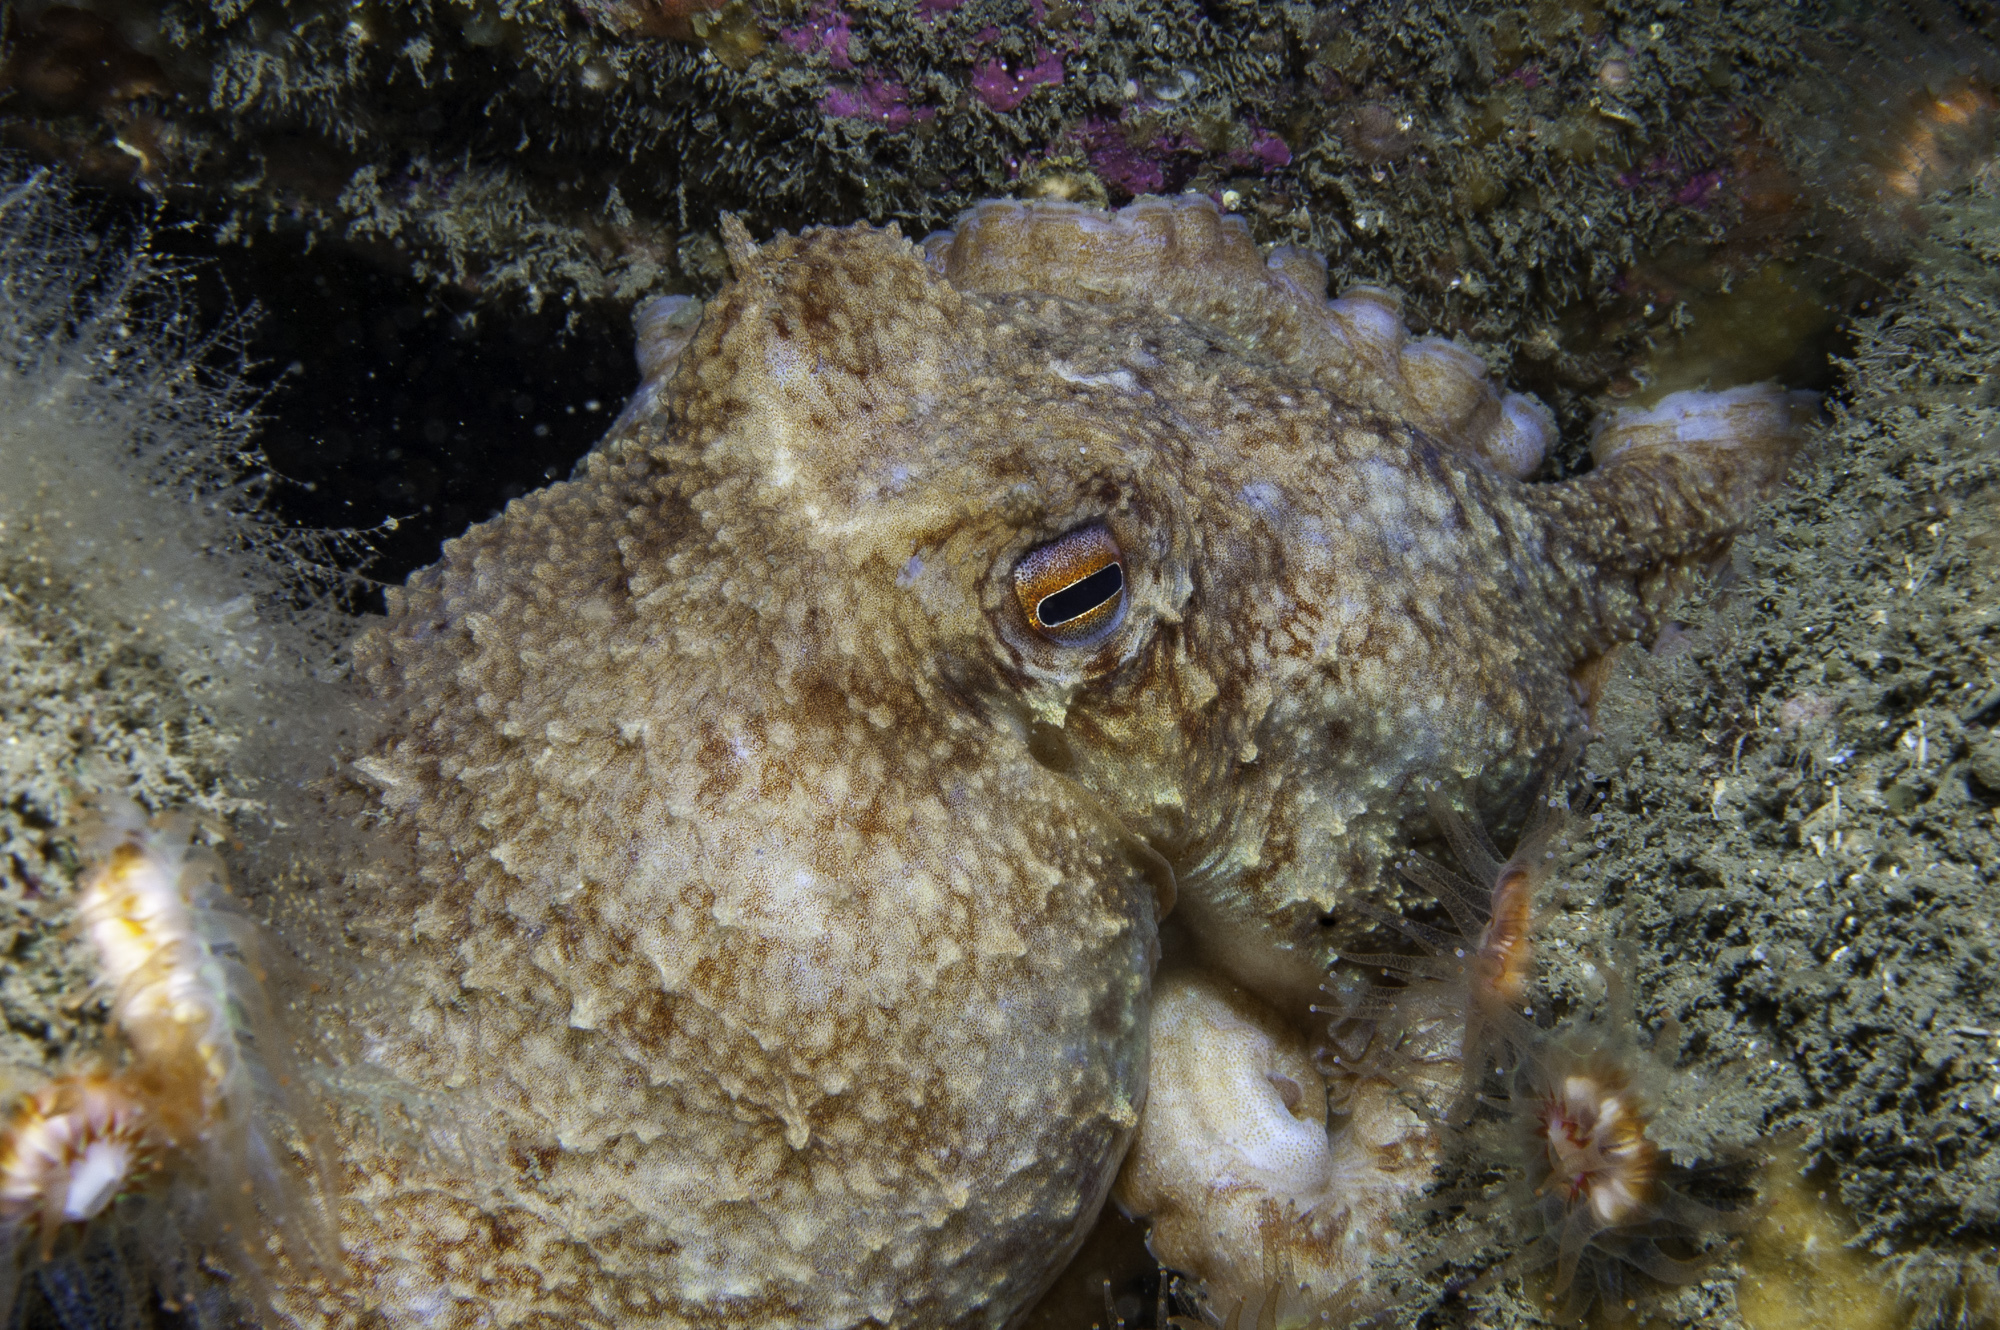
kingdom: Animalia
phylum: Mollusca
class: Cephalopoda
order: Octopoda
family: Eledonidae
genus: Eledone
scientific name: Eledone cirrhosa
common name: Curled octopus
